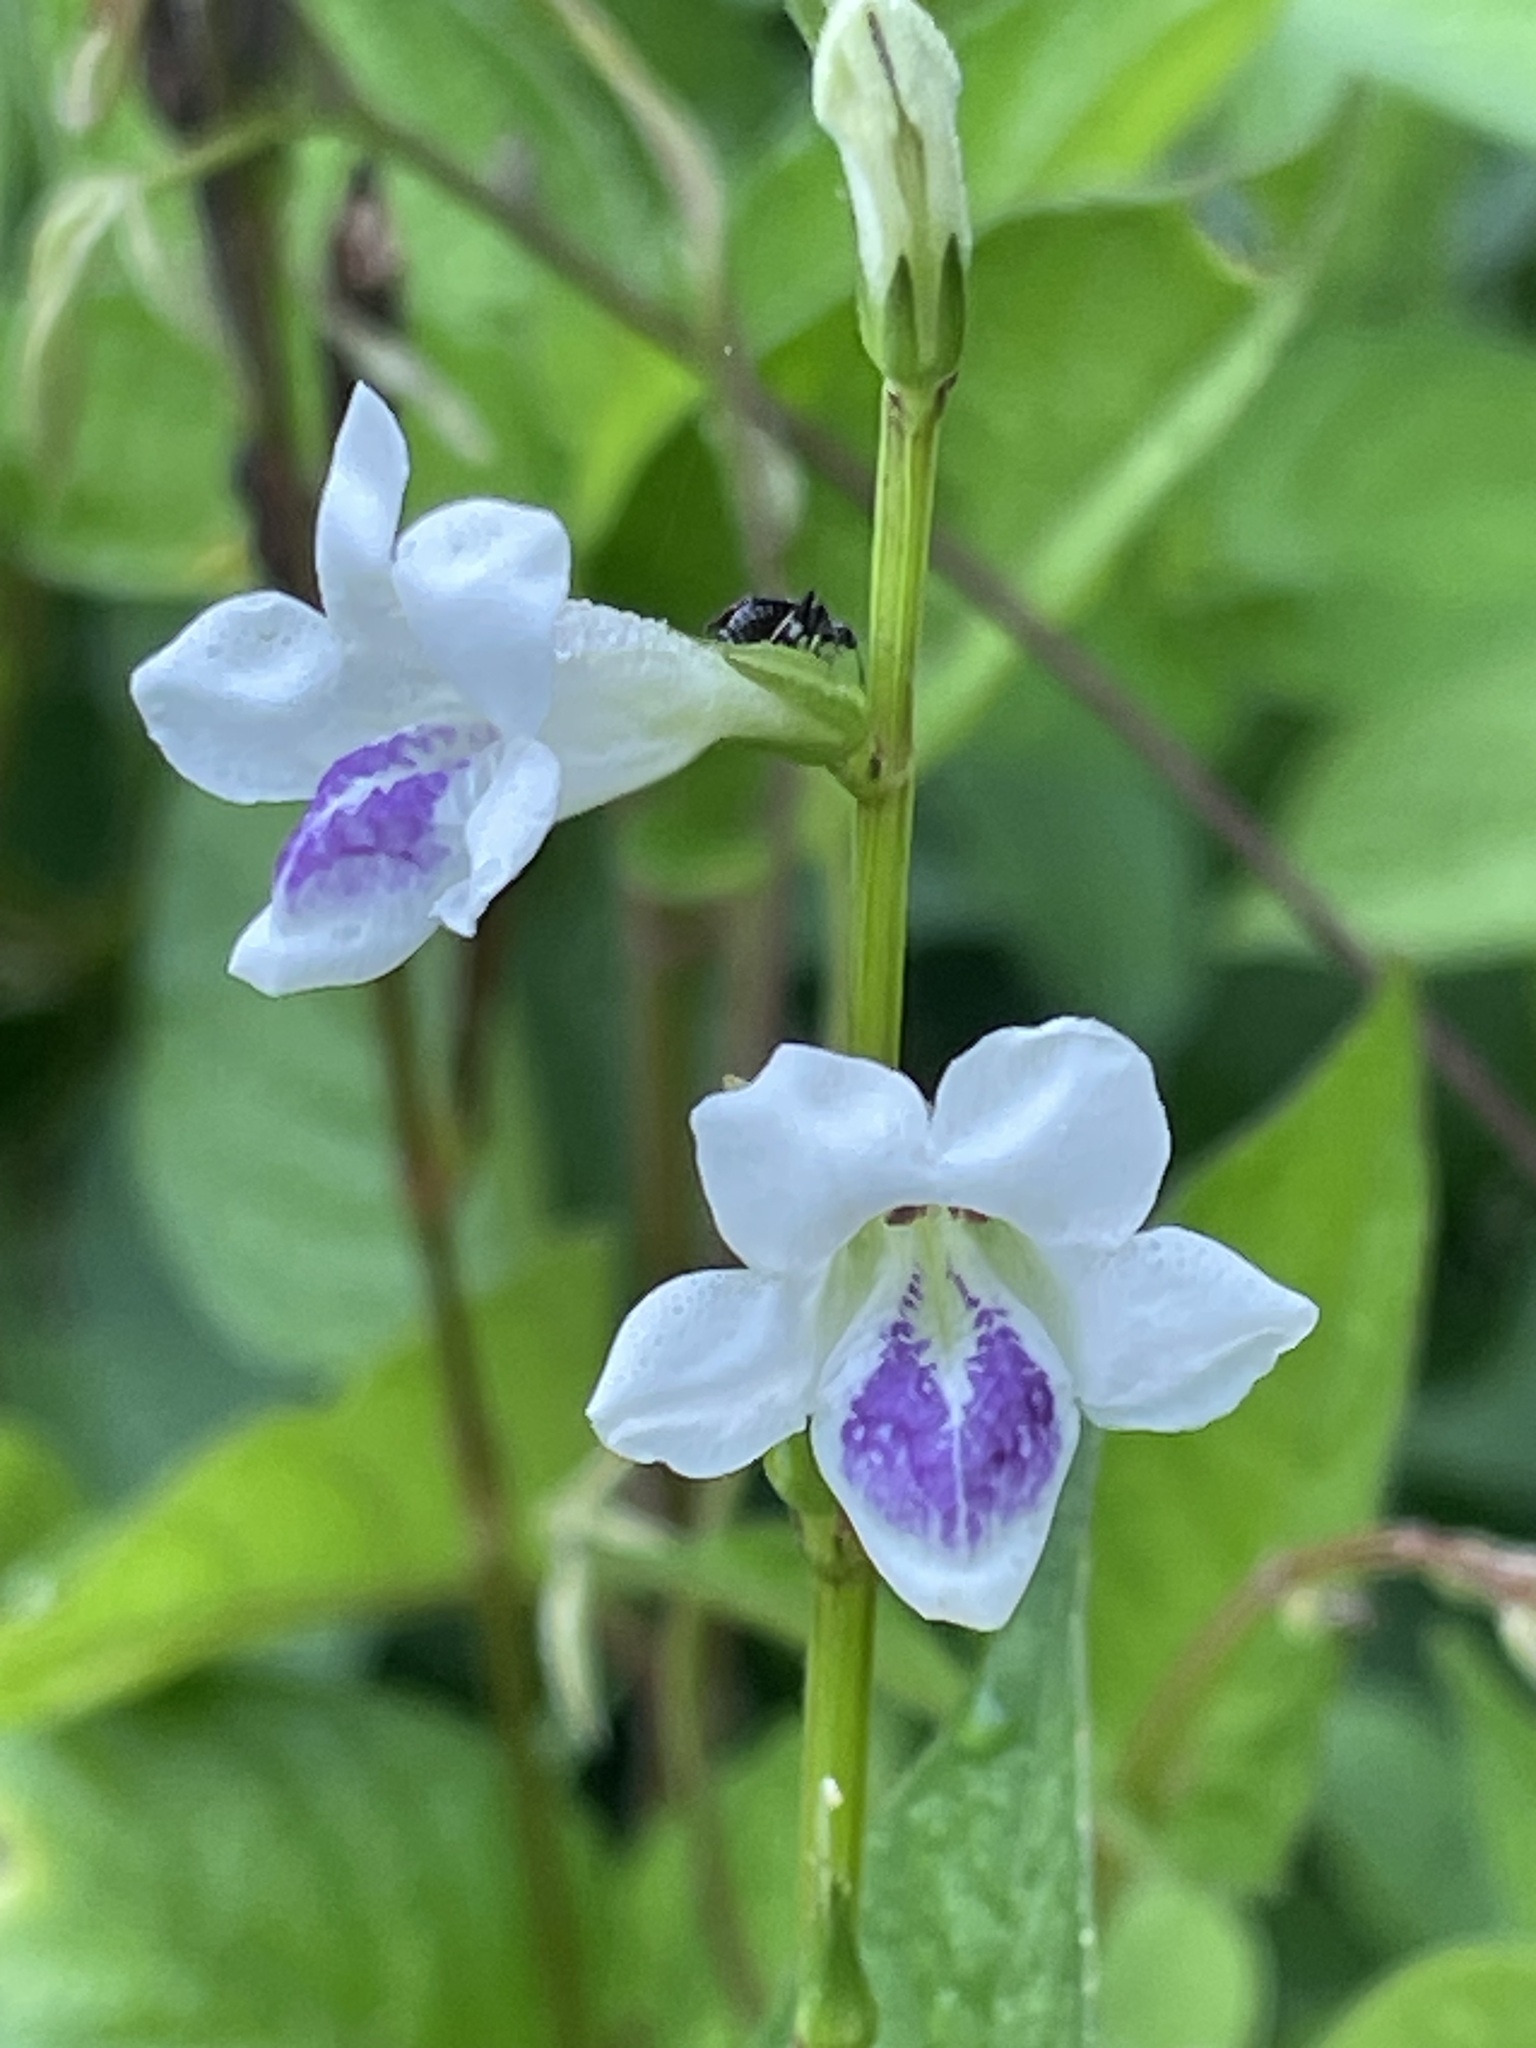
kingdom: Plantae
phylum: Tracheophyta
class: Magnoliopsida
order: Lamiales
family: Acanthaceae
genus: Asystasia
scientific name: Asystasia intrusa
